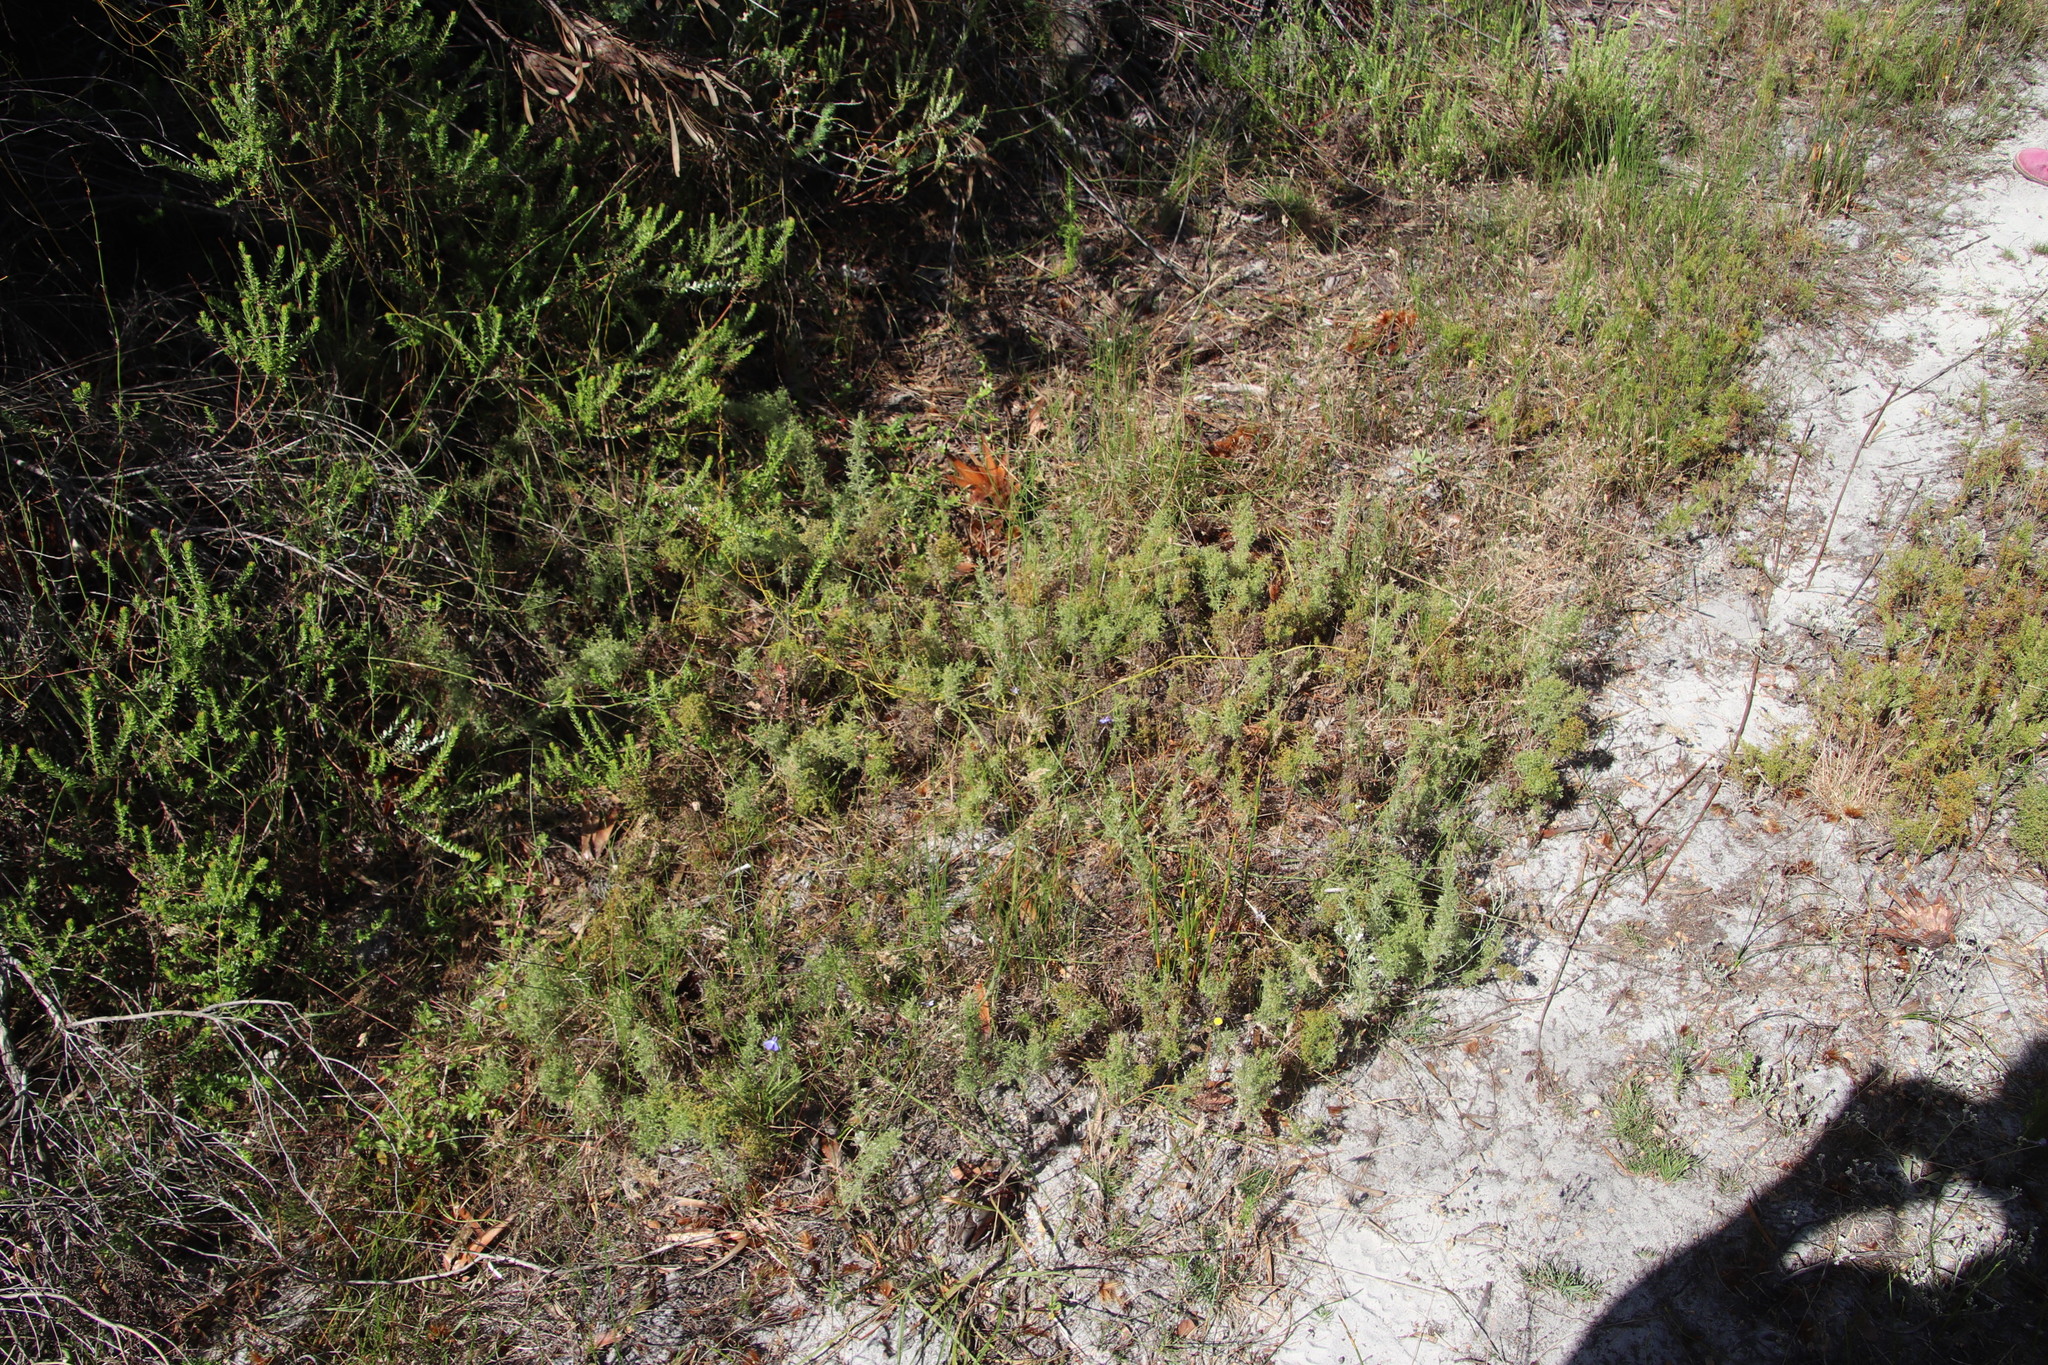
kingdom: Plantae
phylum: Tracheophyta
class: Liliopsida
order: Poales
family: Restionaceae
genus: Thamnochortus
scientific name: Thamnochortus fruticosus
